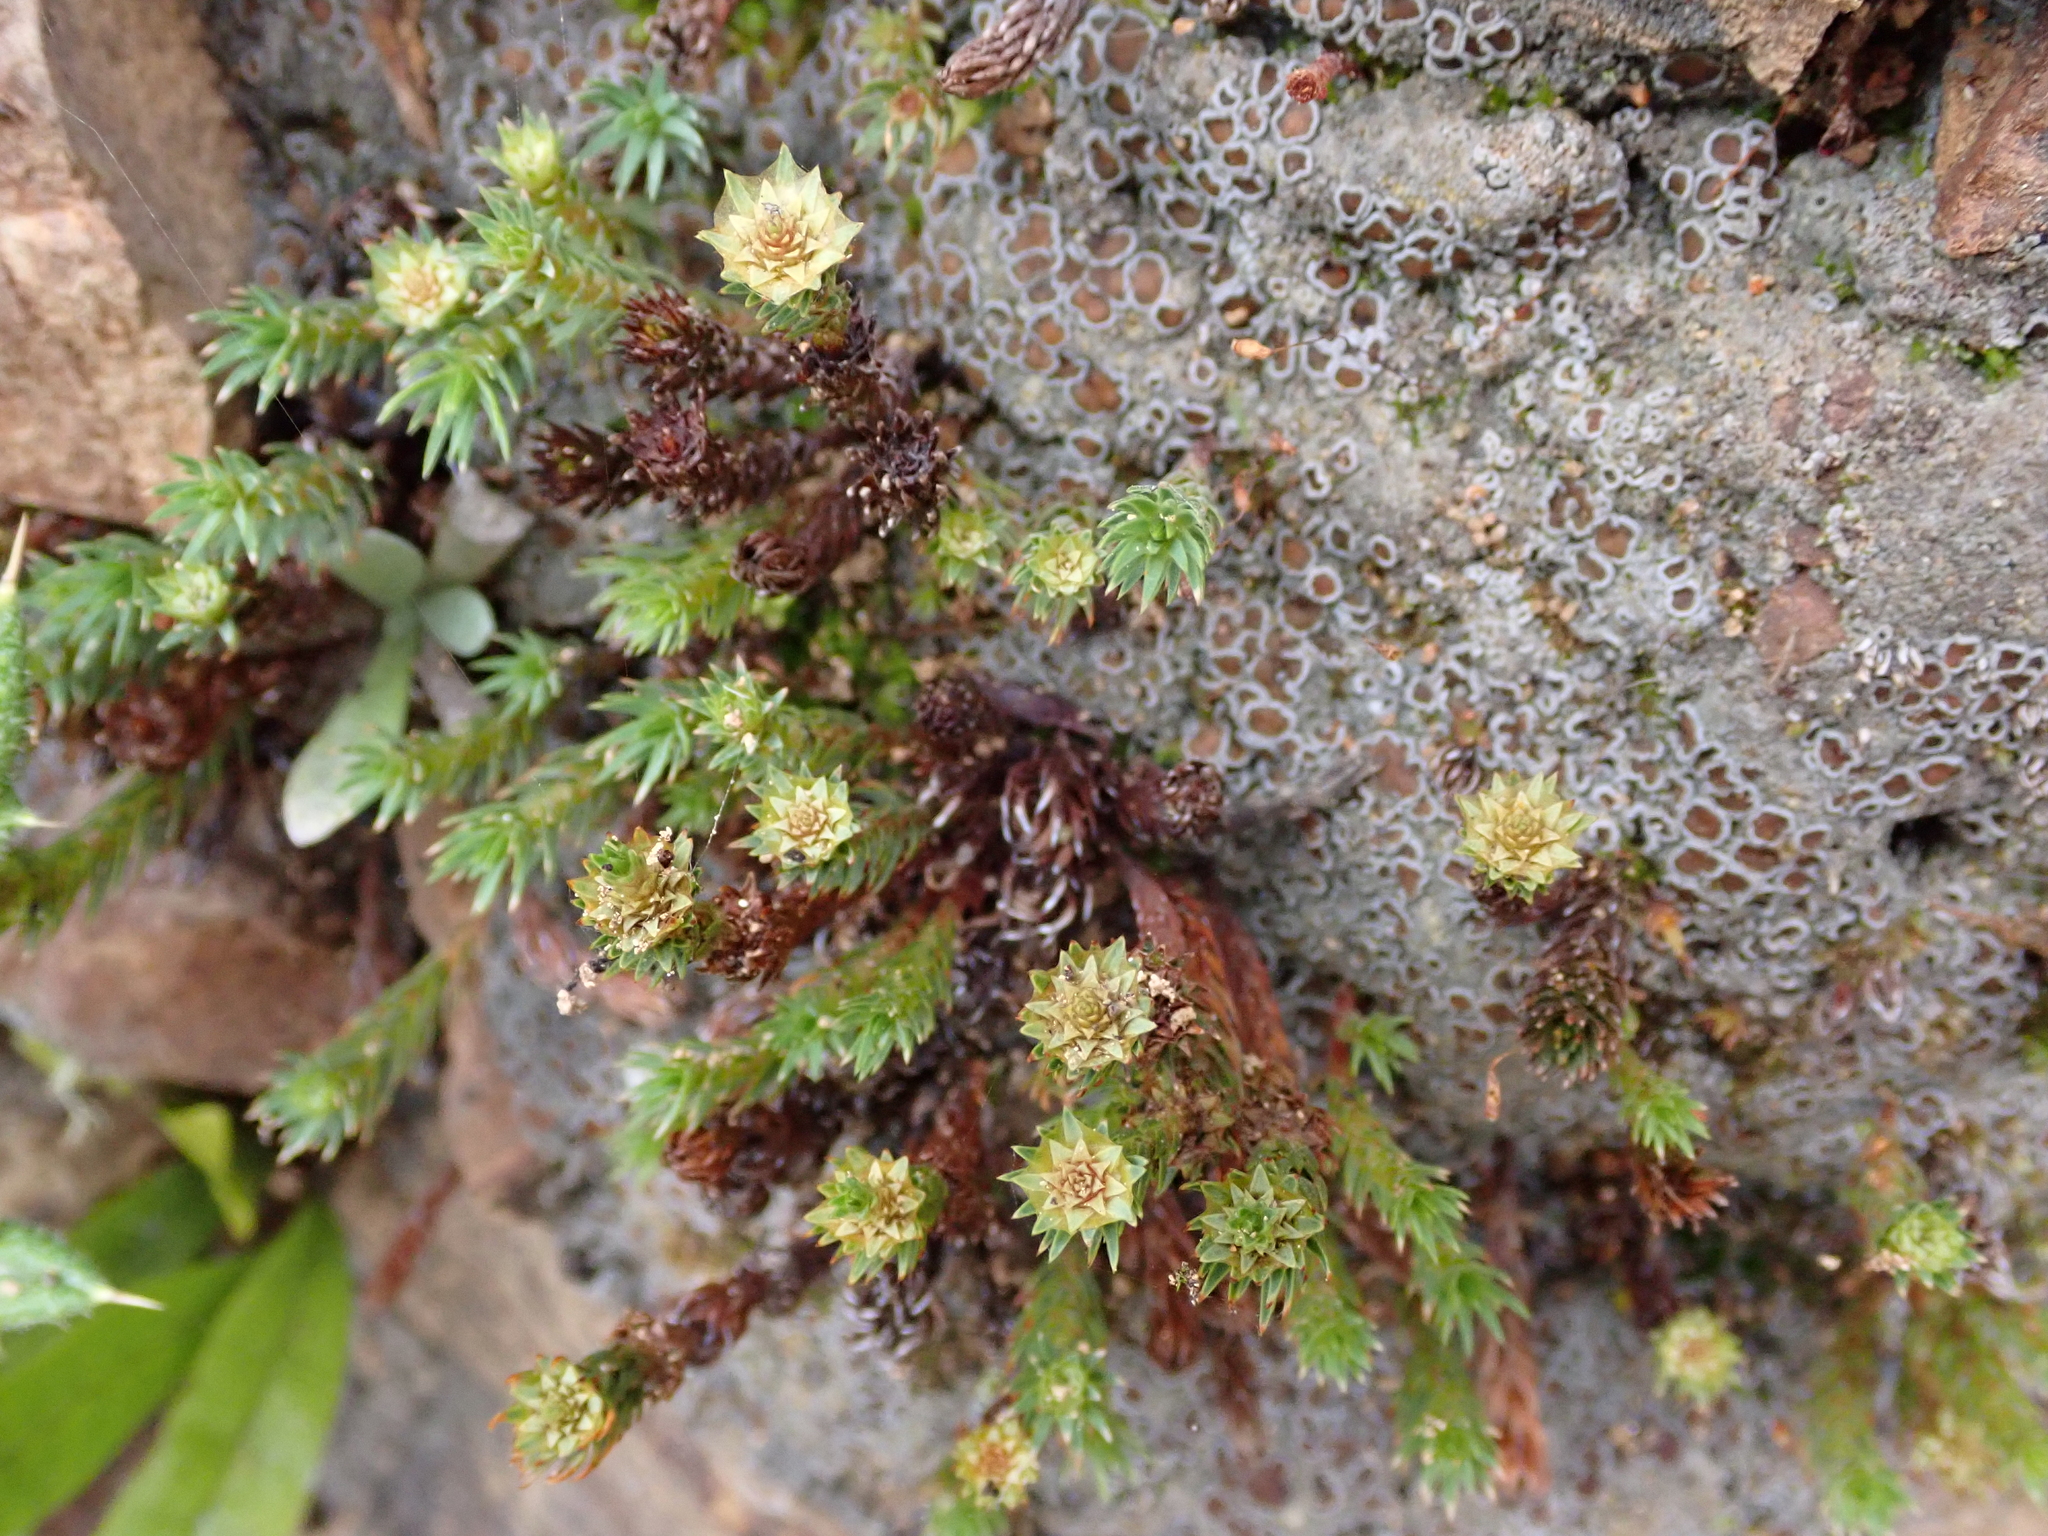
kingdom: Plantae
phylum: Bryophyta
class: Polytrichopsida
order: Polytrichales
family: Polytrichaceae
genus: Polytrichadelphus
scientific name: Polytrichadelphus magellanicus
